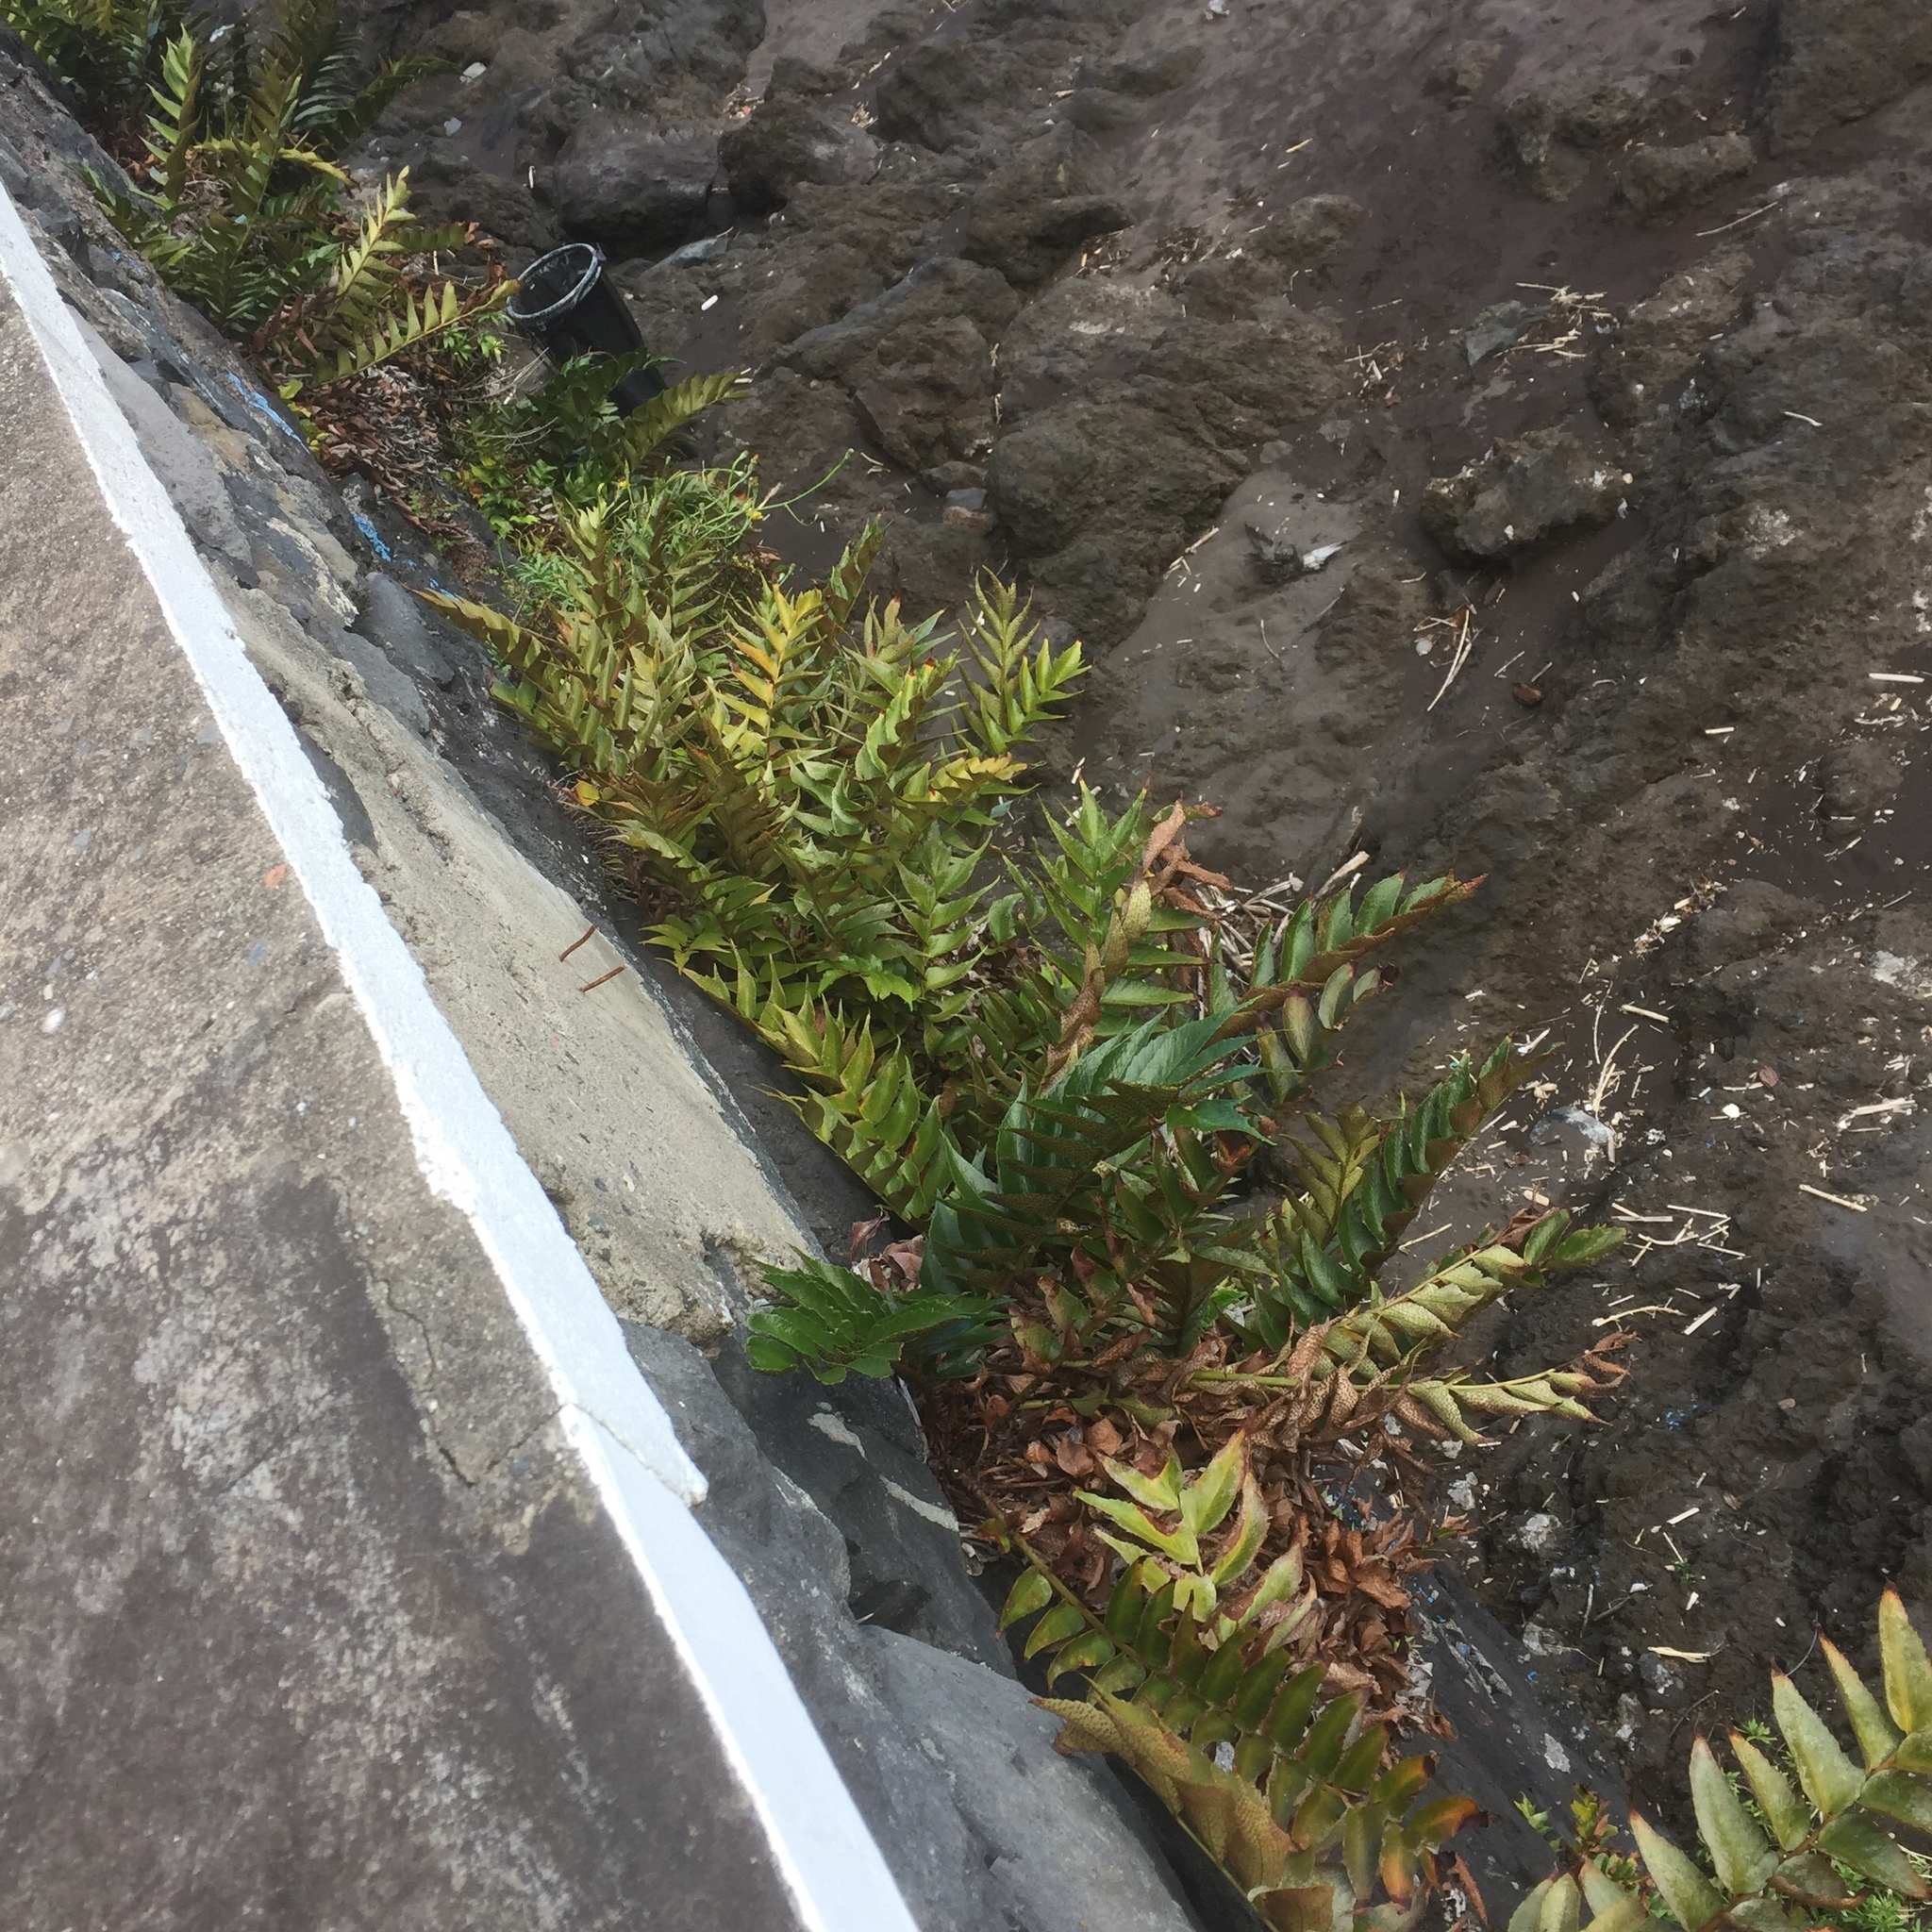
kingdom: Plantae
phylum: Tracheophyta
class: Polypodiopsida
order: Polypodiales
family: Dryopteridaceae
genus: Cyrtomium
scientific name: Cyrtomium falcatum
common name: House holly-fern
